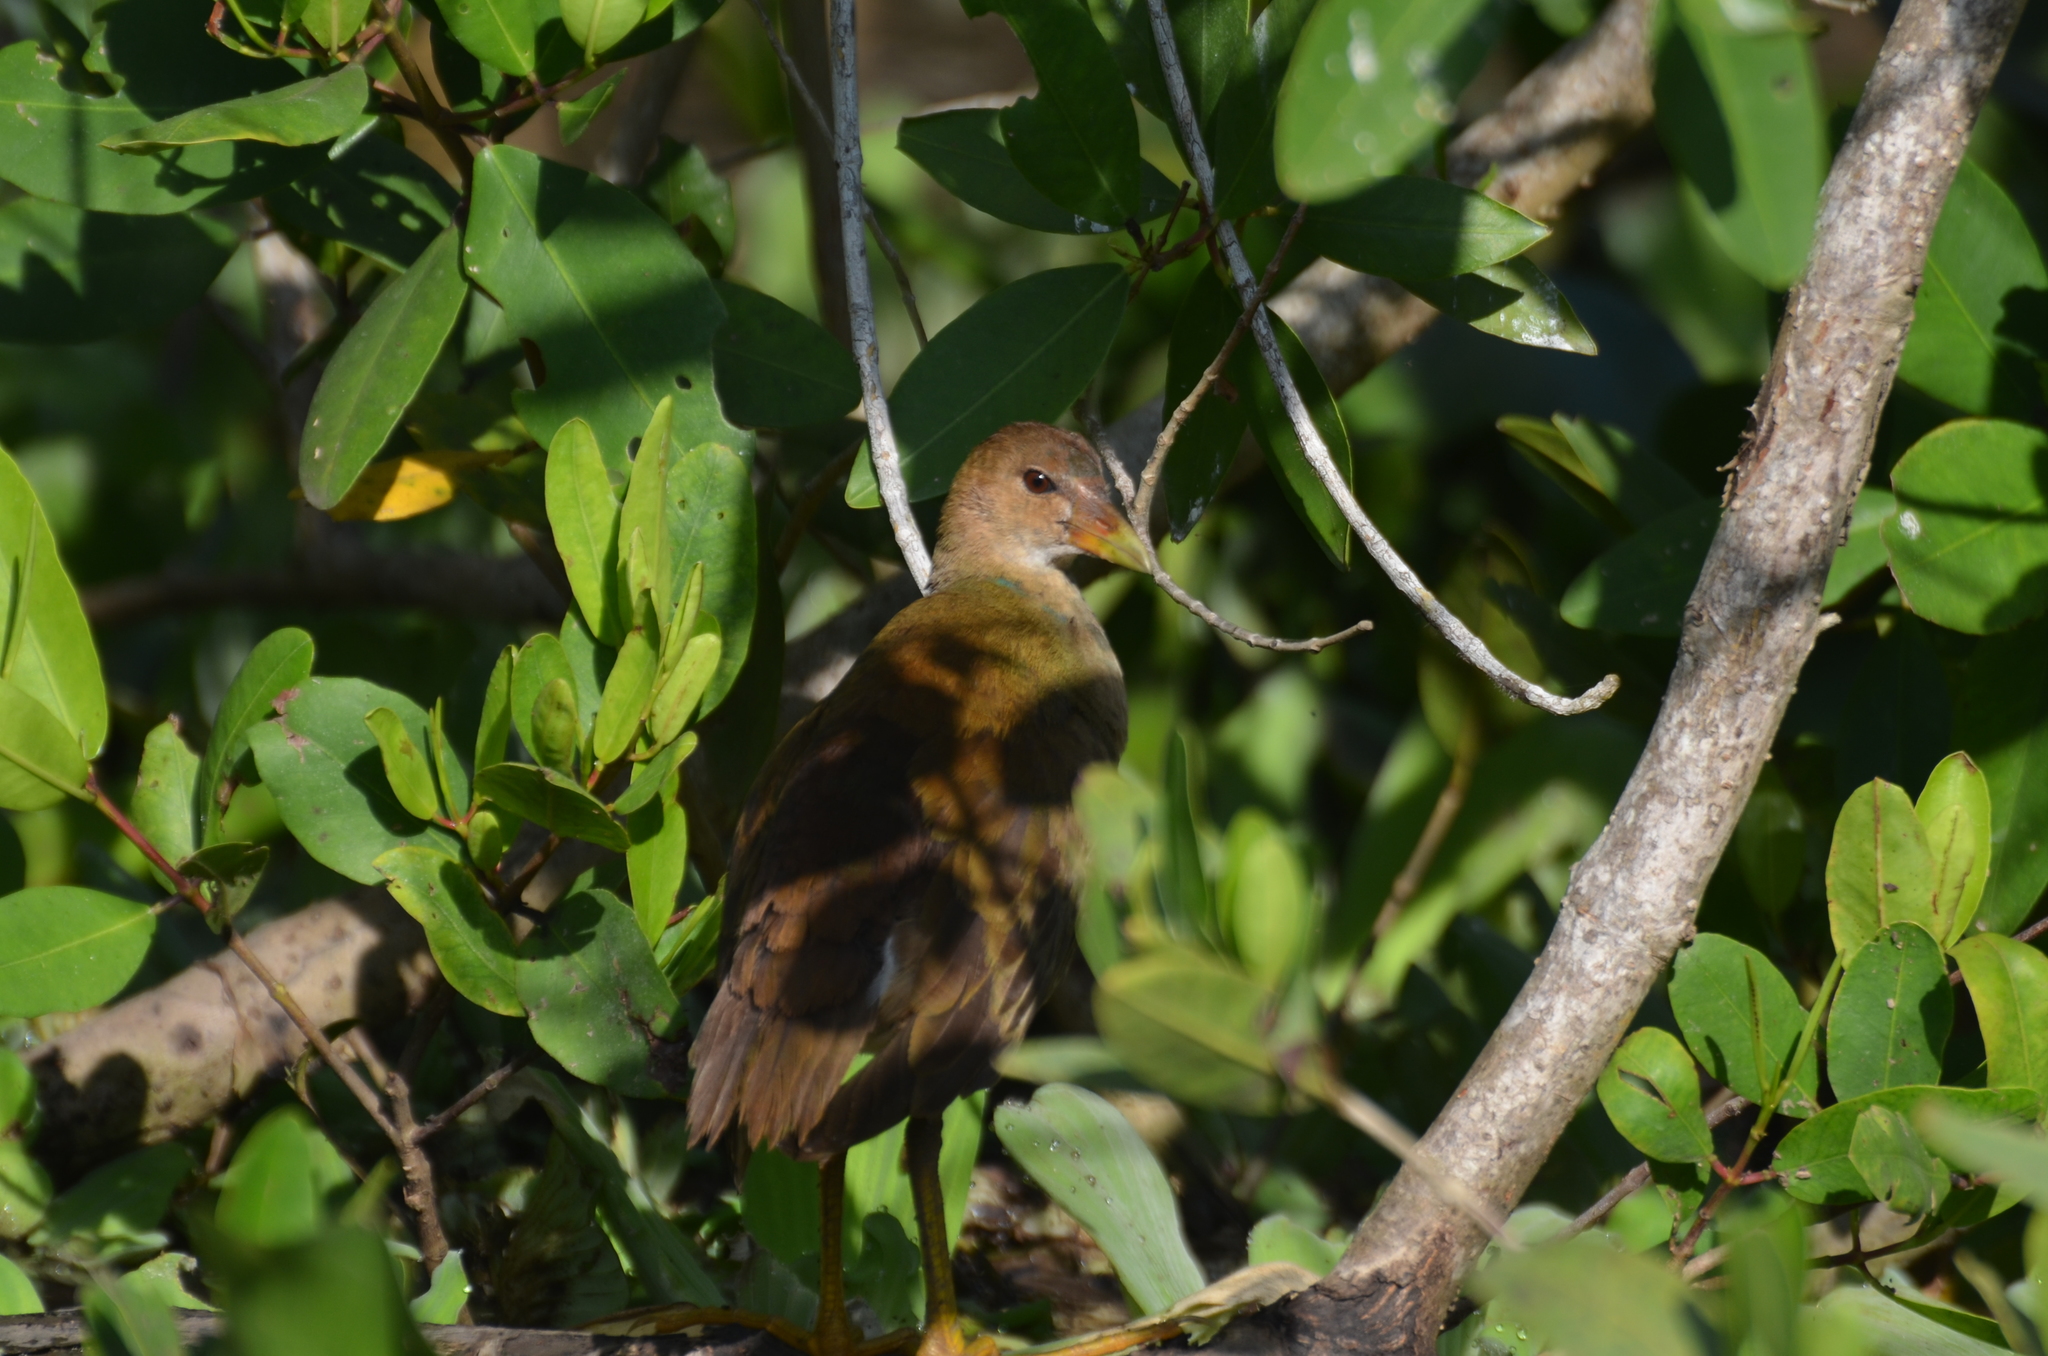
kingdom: Animalia
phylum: Chordata
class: Aves
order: Gruiformes
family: Rallidae
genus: Porphyrio
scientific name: Porphyrio martinica
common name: Purple gallinule
